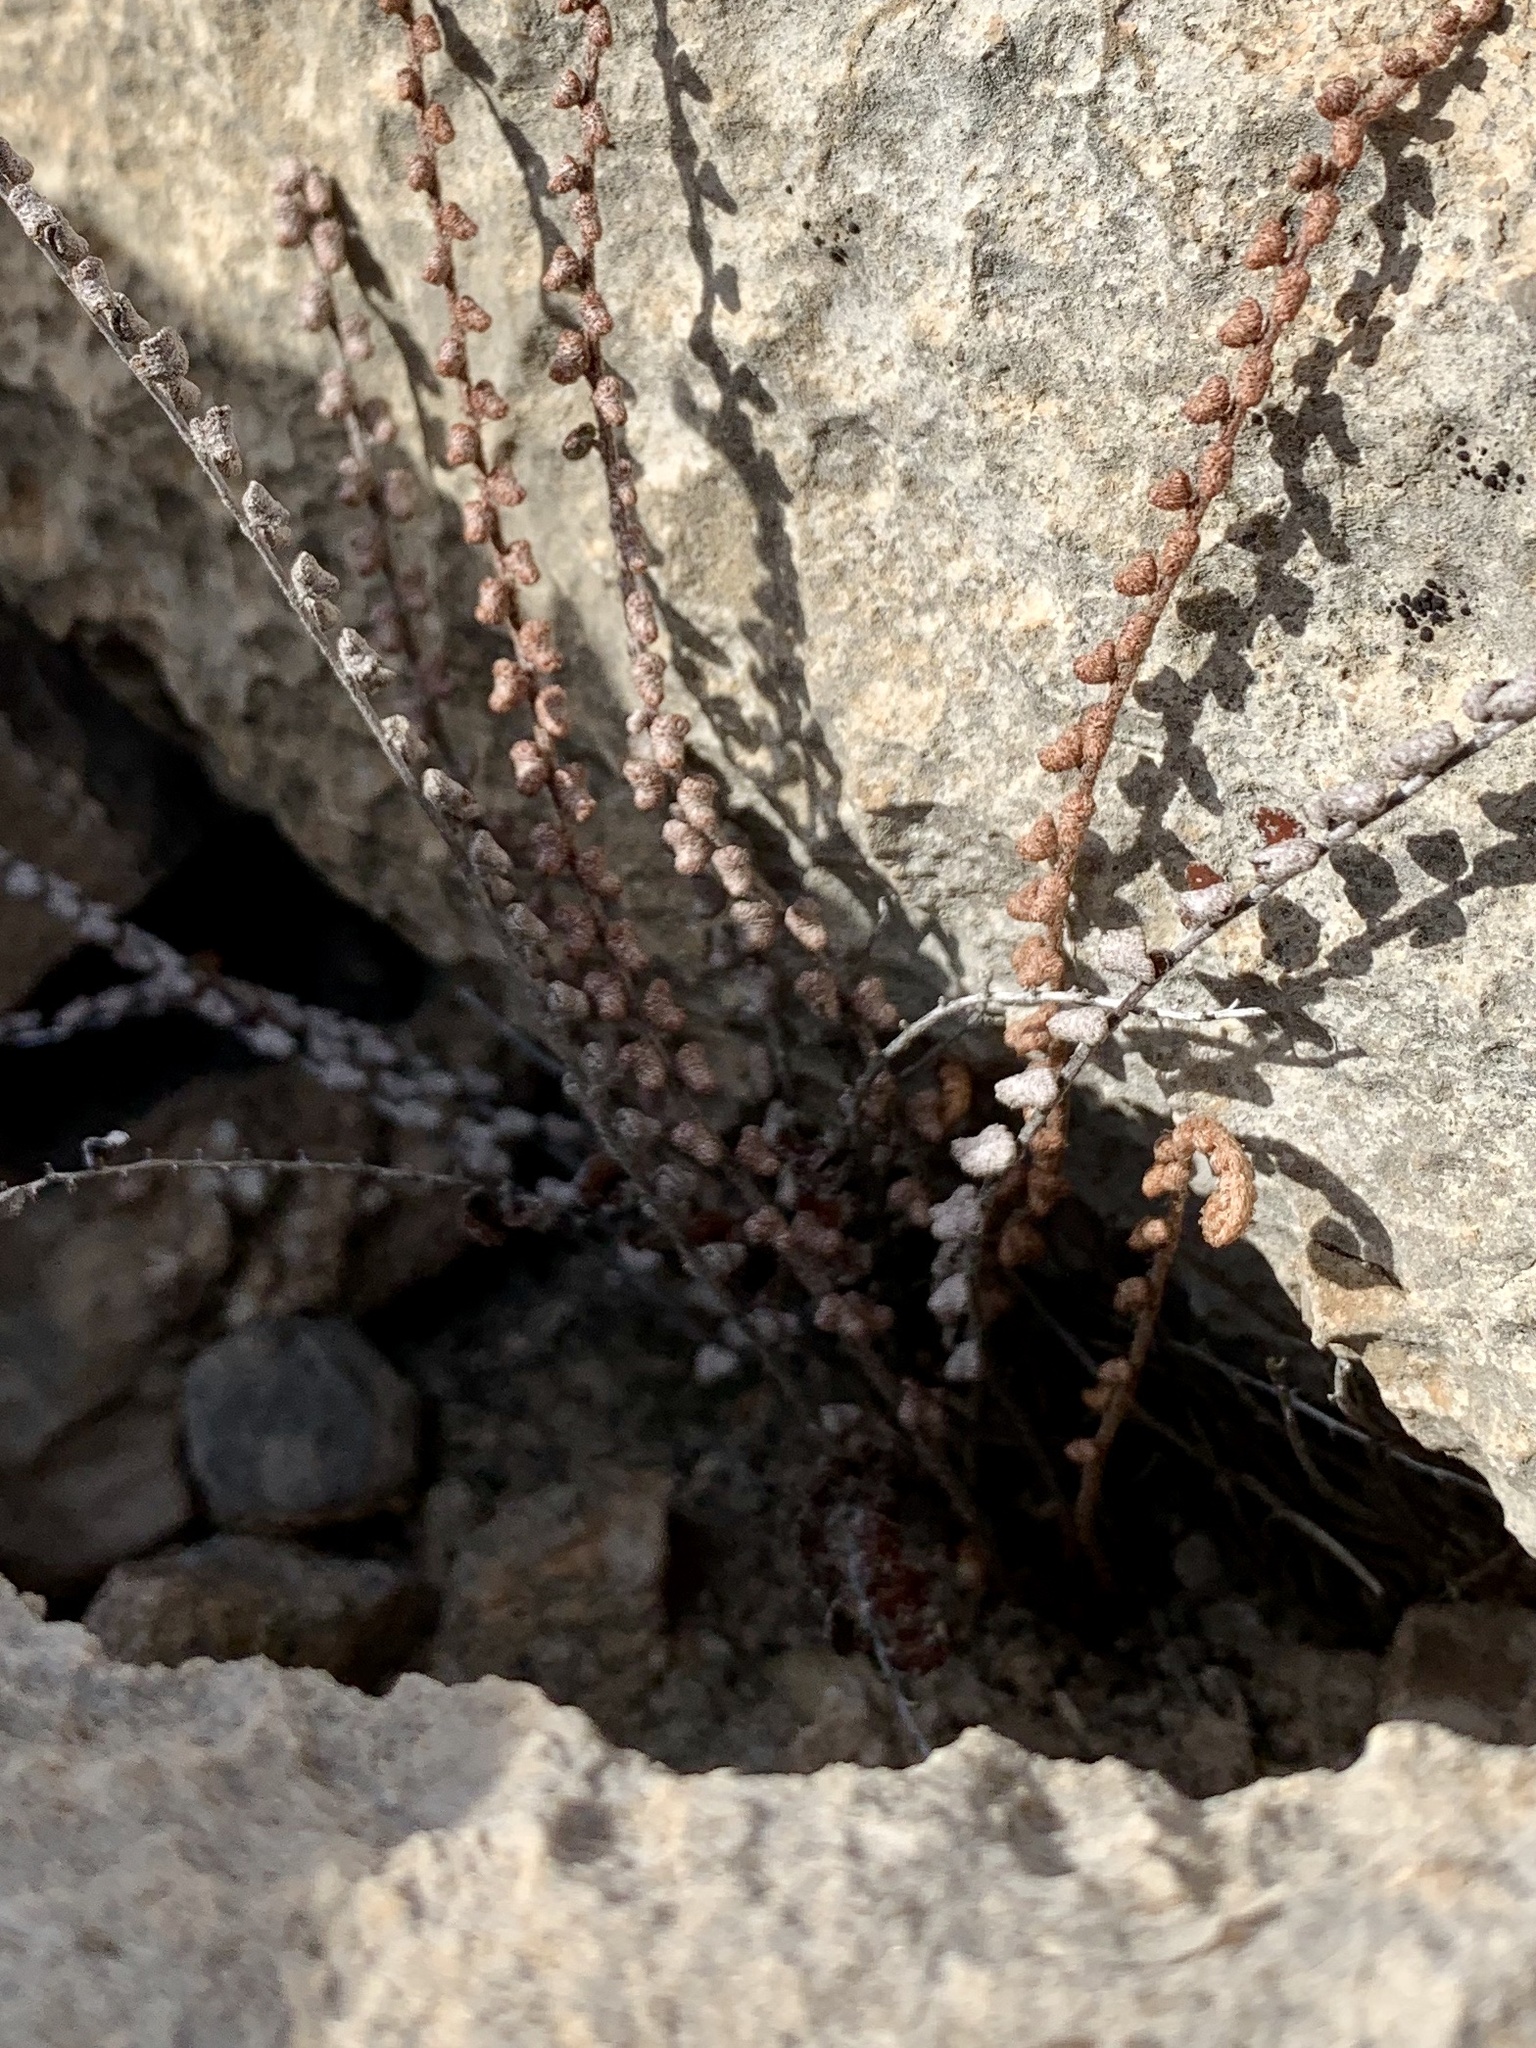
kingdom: Plantae
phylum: Tracheophyta
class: Polypodiopsida
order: Polypodiales
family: Pteridaceae
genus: Astrolepis
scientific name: Astrolepis cochisensis
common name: Scaly cloak fern
